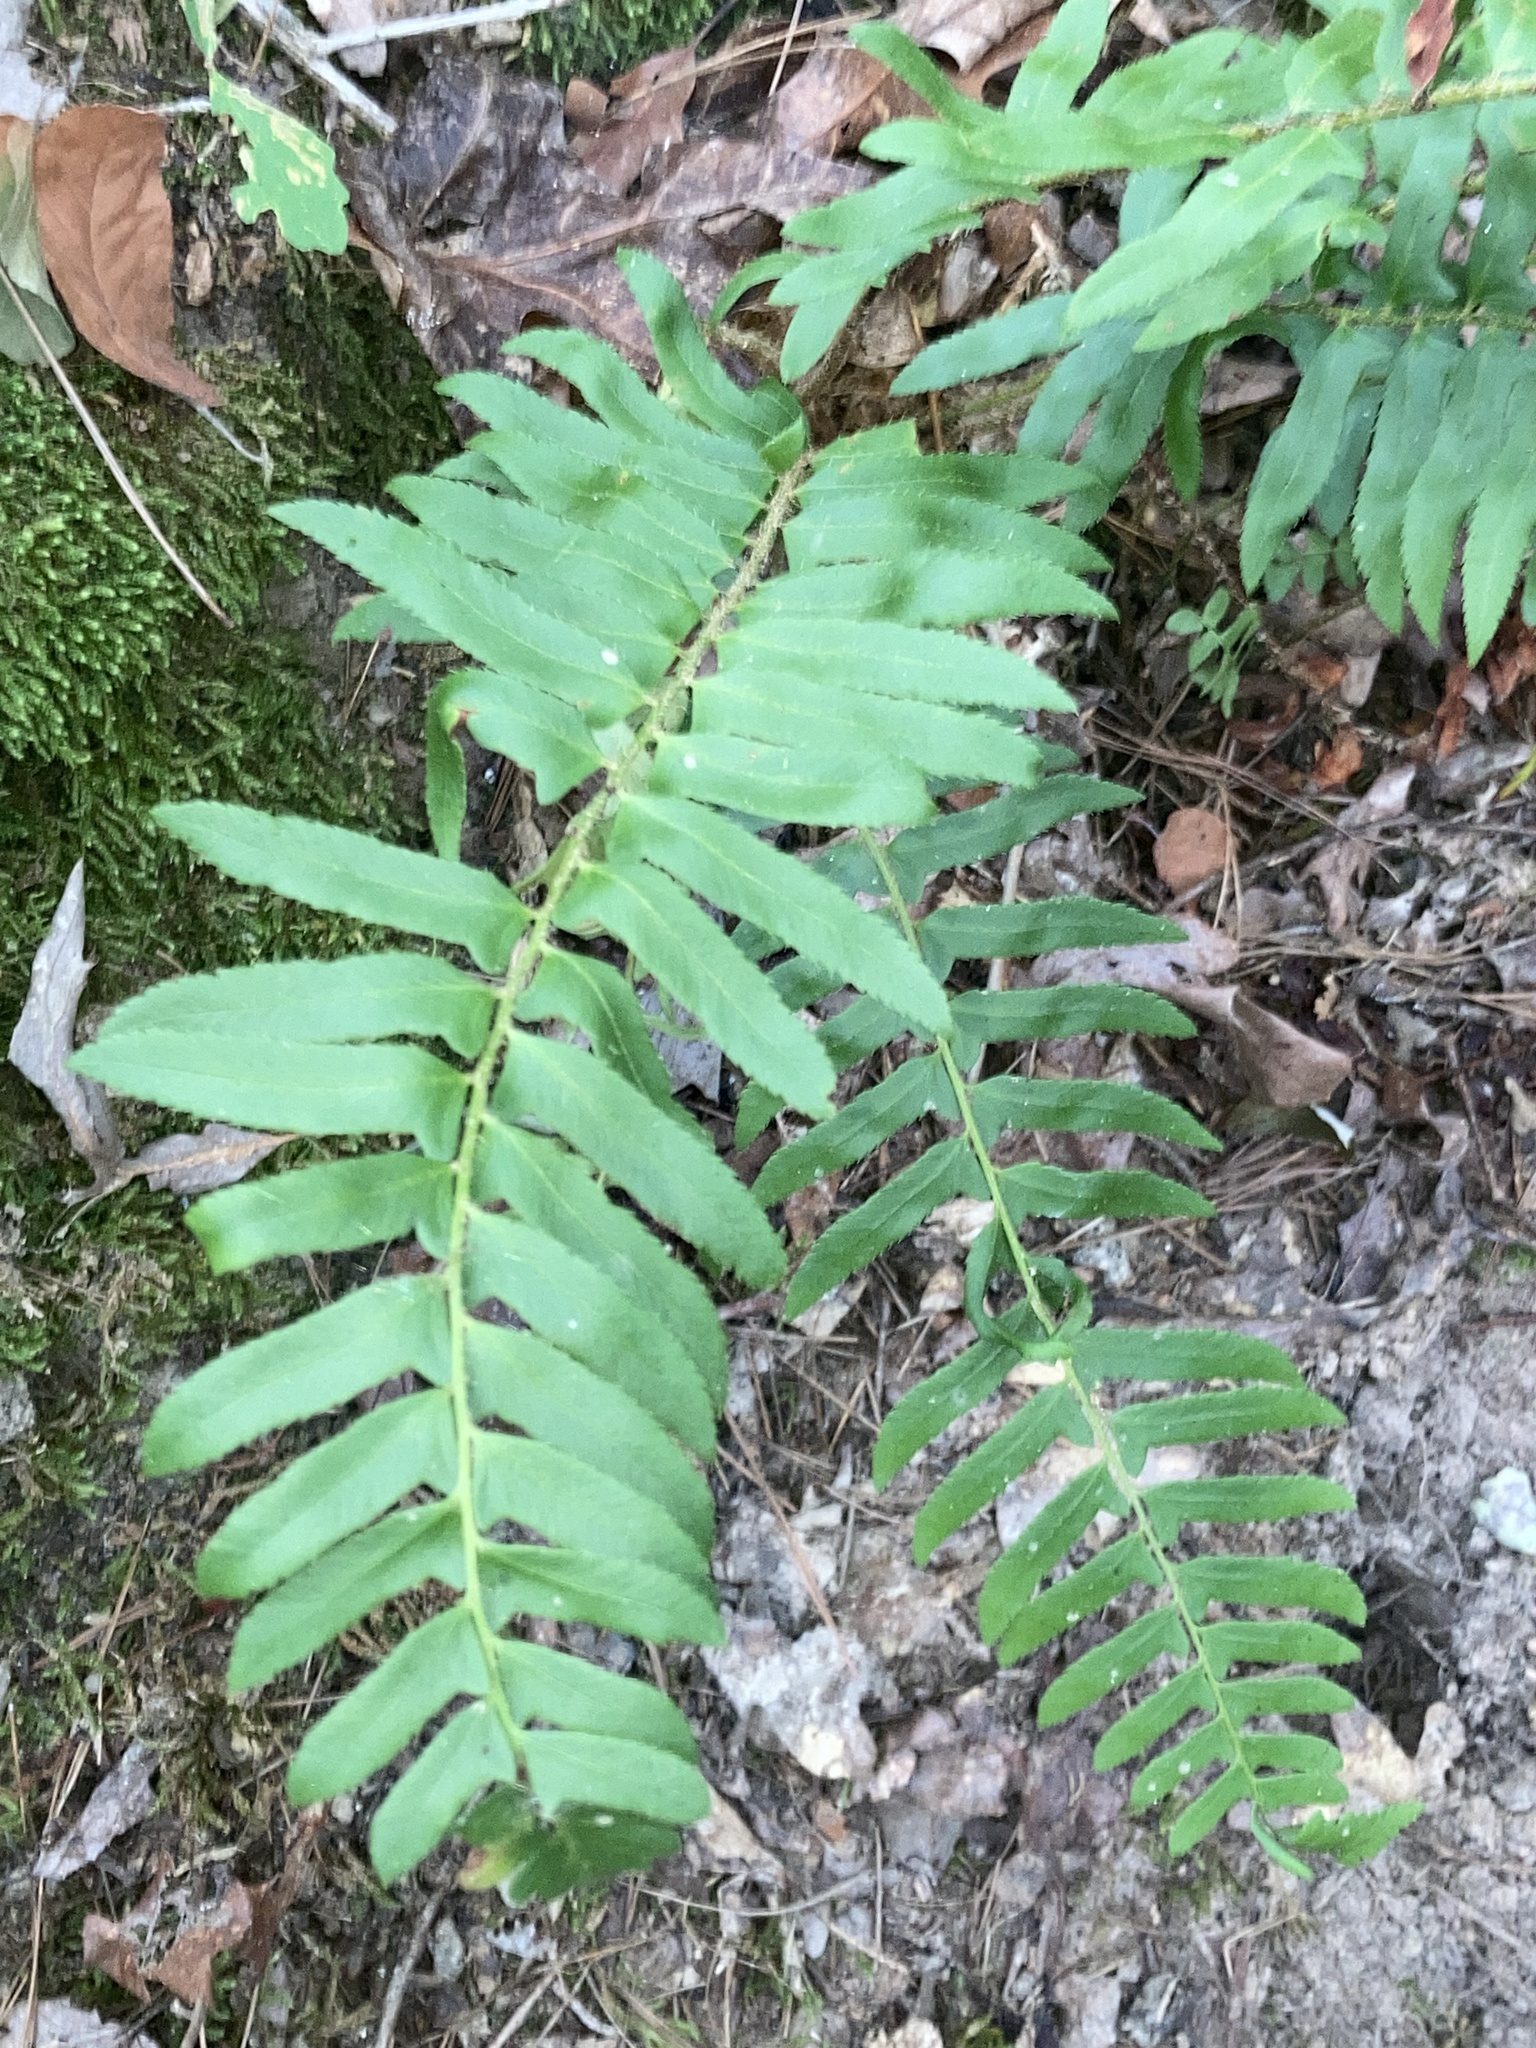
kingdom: Plantae
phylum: Tracheophyta
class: Polypodiopsida
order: Polypodiales
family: Dryopteridaceae
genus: Polystichum
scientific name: Polystichum acrostichoides
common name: Christmas fern
